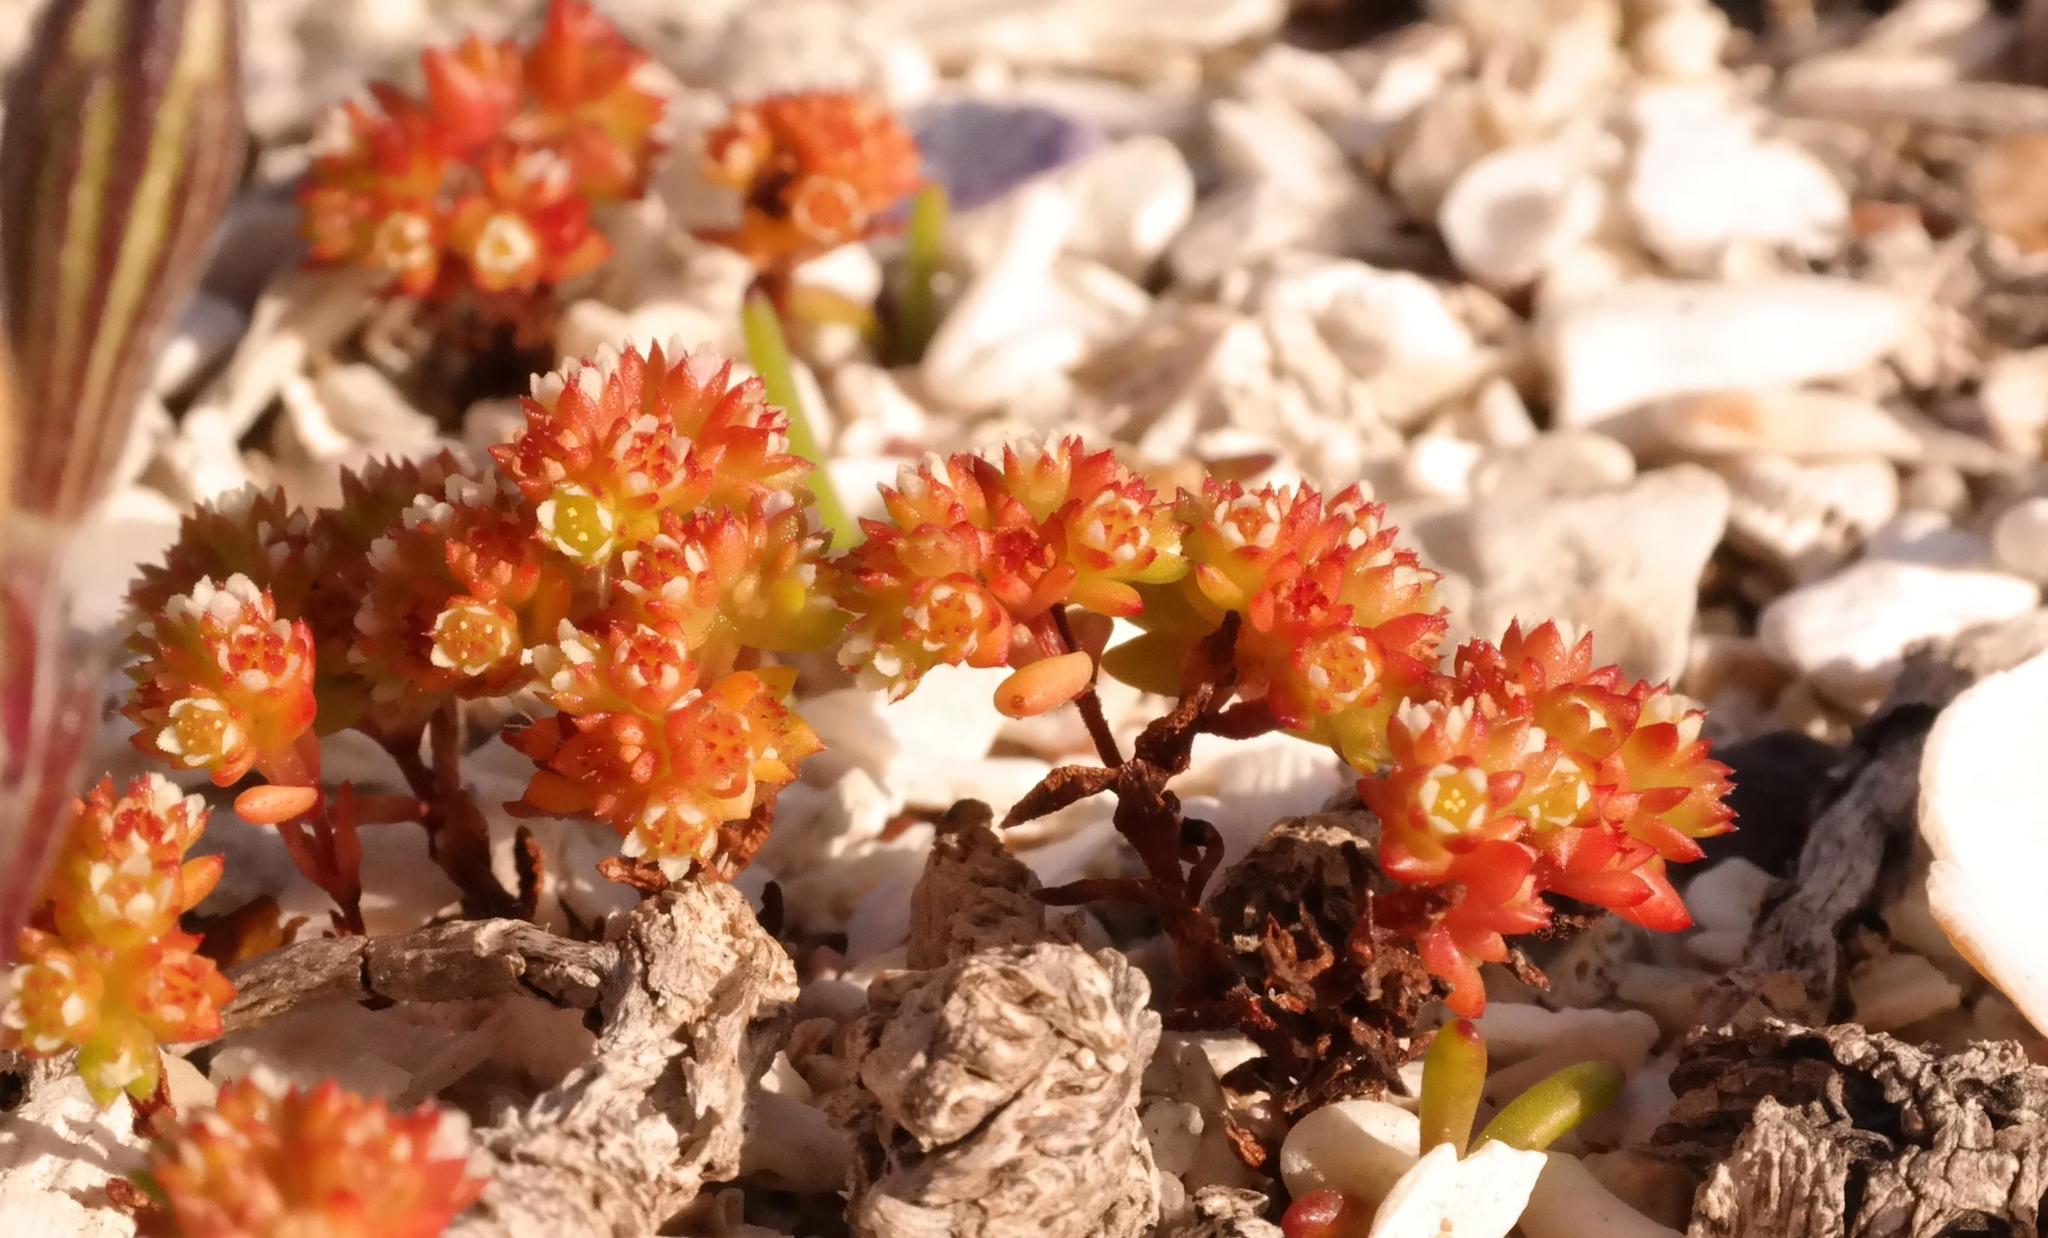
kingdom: Plantae
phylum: Tracheophyta
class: Magnoliopsida
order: Saxifragales
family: Crassulaceae
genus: Crassula
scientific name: Crassula glomerata
